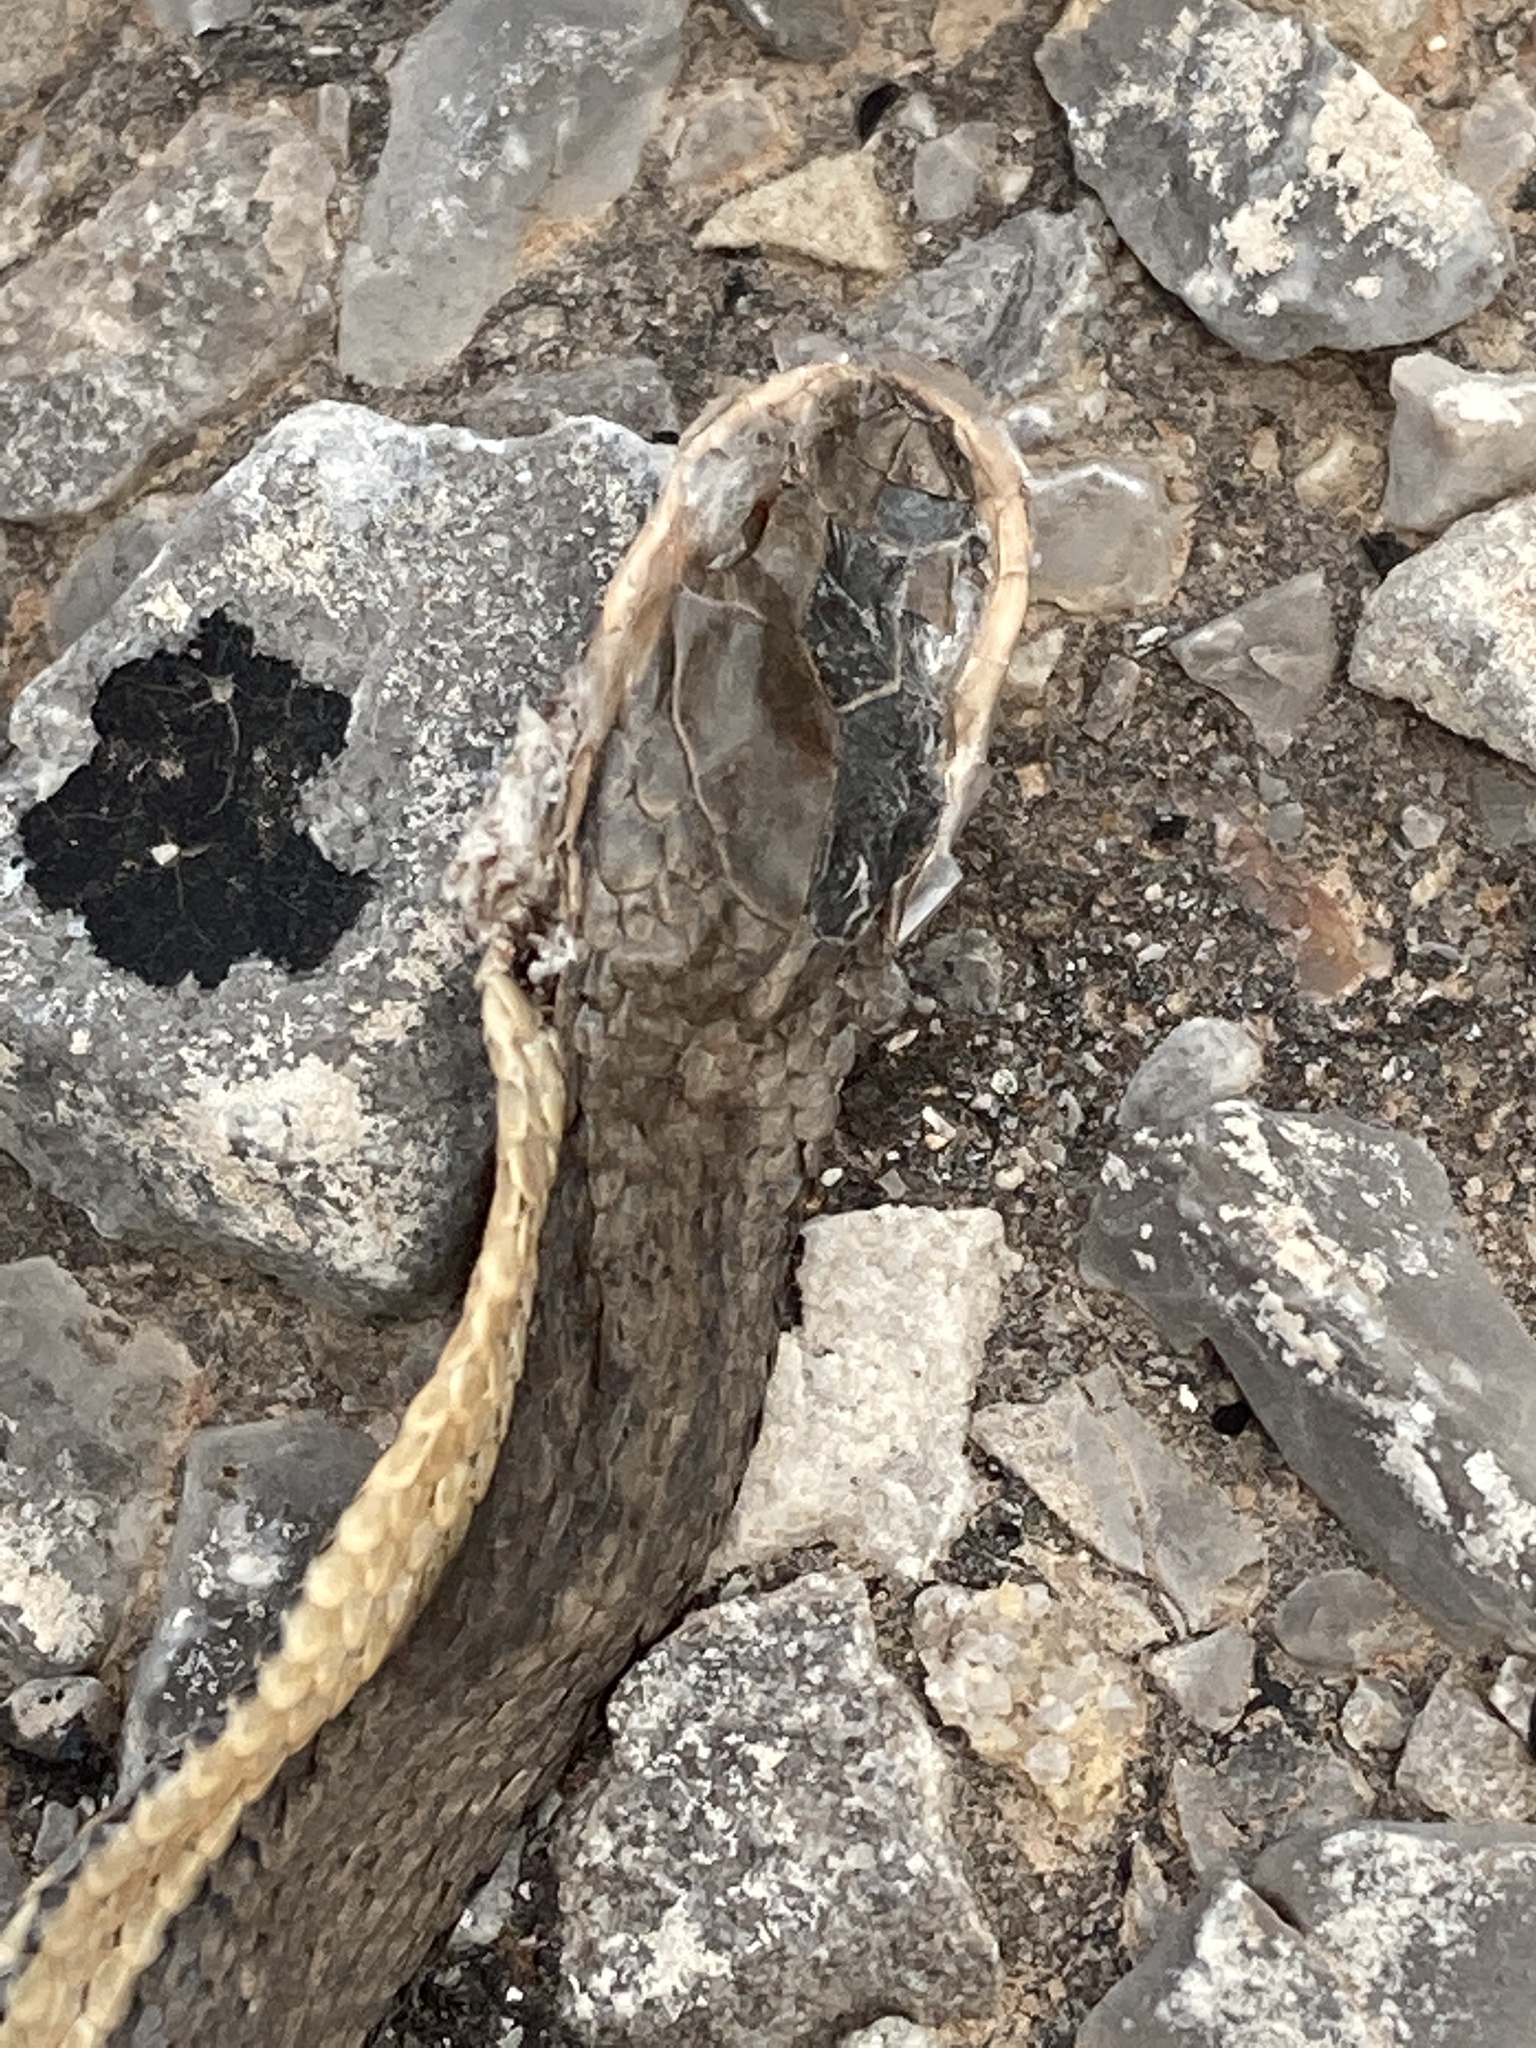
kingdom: Animalia
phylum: Chordata
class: Squamata
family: Colubridae
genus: Regina
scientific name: Regina grahamii
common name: Graham's crayfish snake
